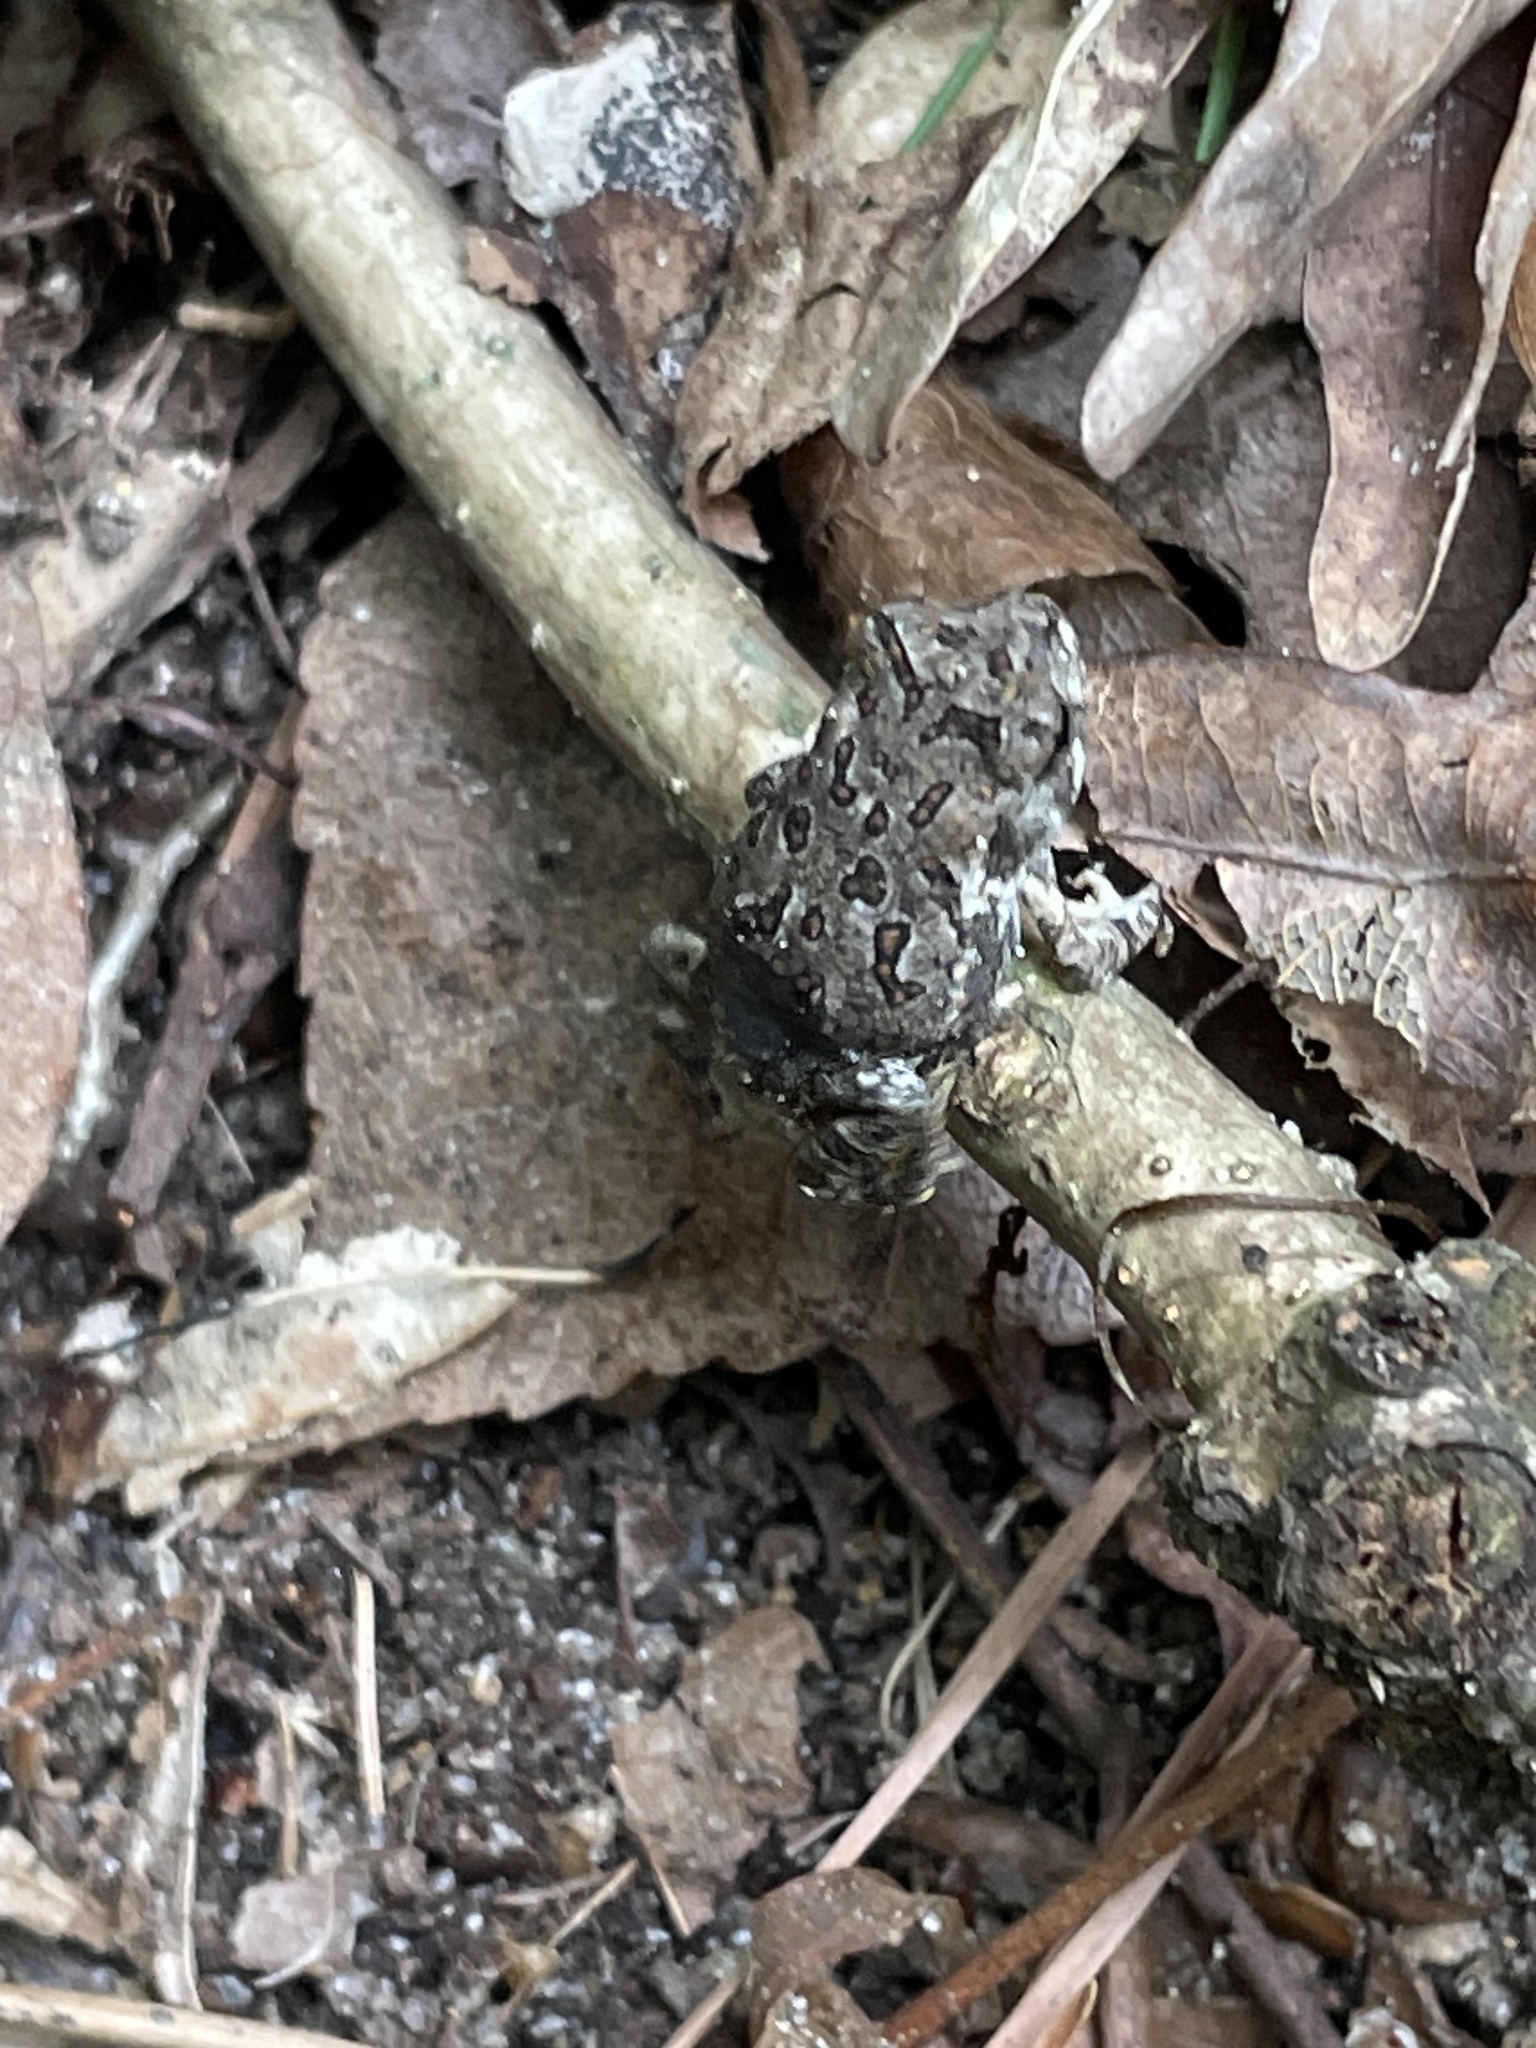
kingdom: Animalia
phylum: Chordata
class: Amphibia
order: Anura
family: Bufonidae
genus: Anaxyrus
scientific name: Anaxyrus fowleri
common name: Fowler's toad
